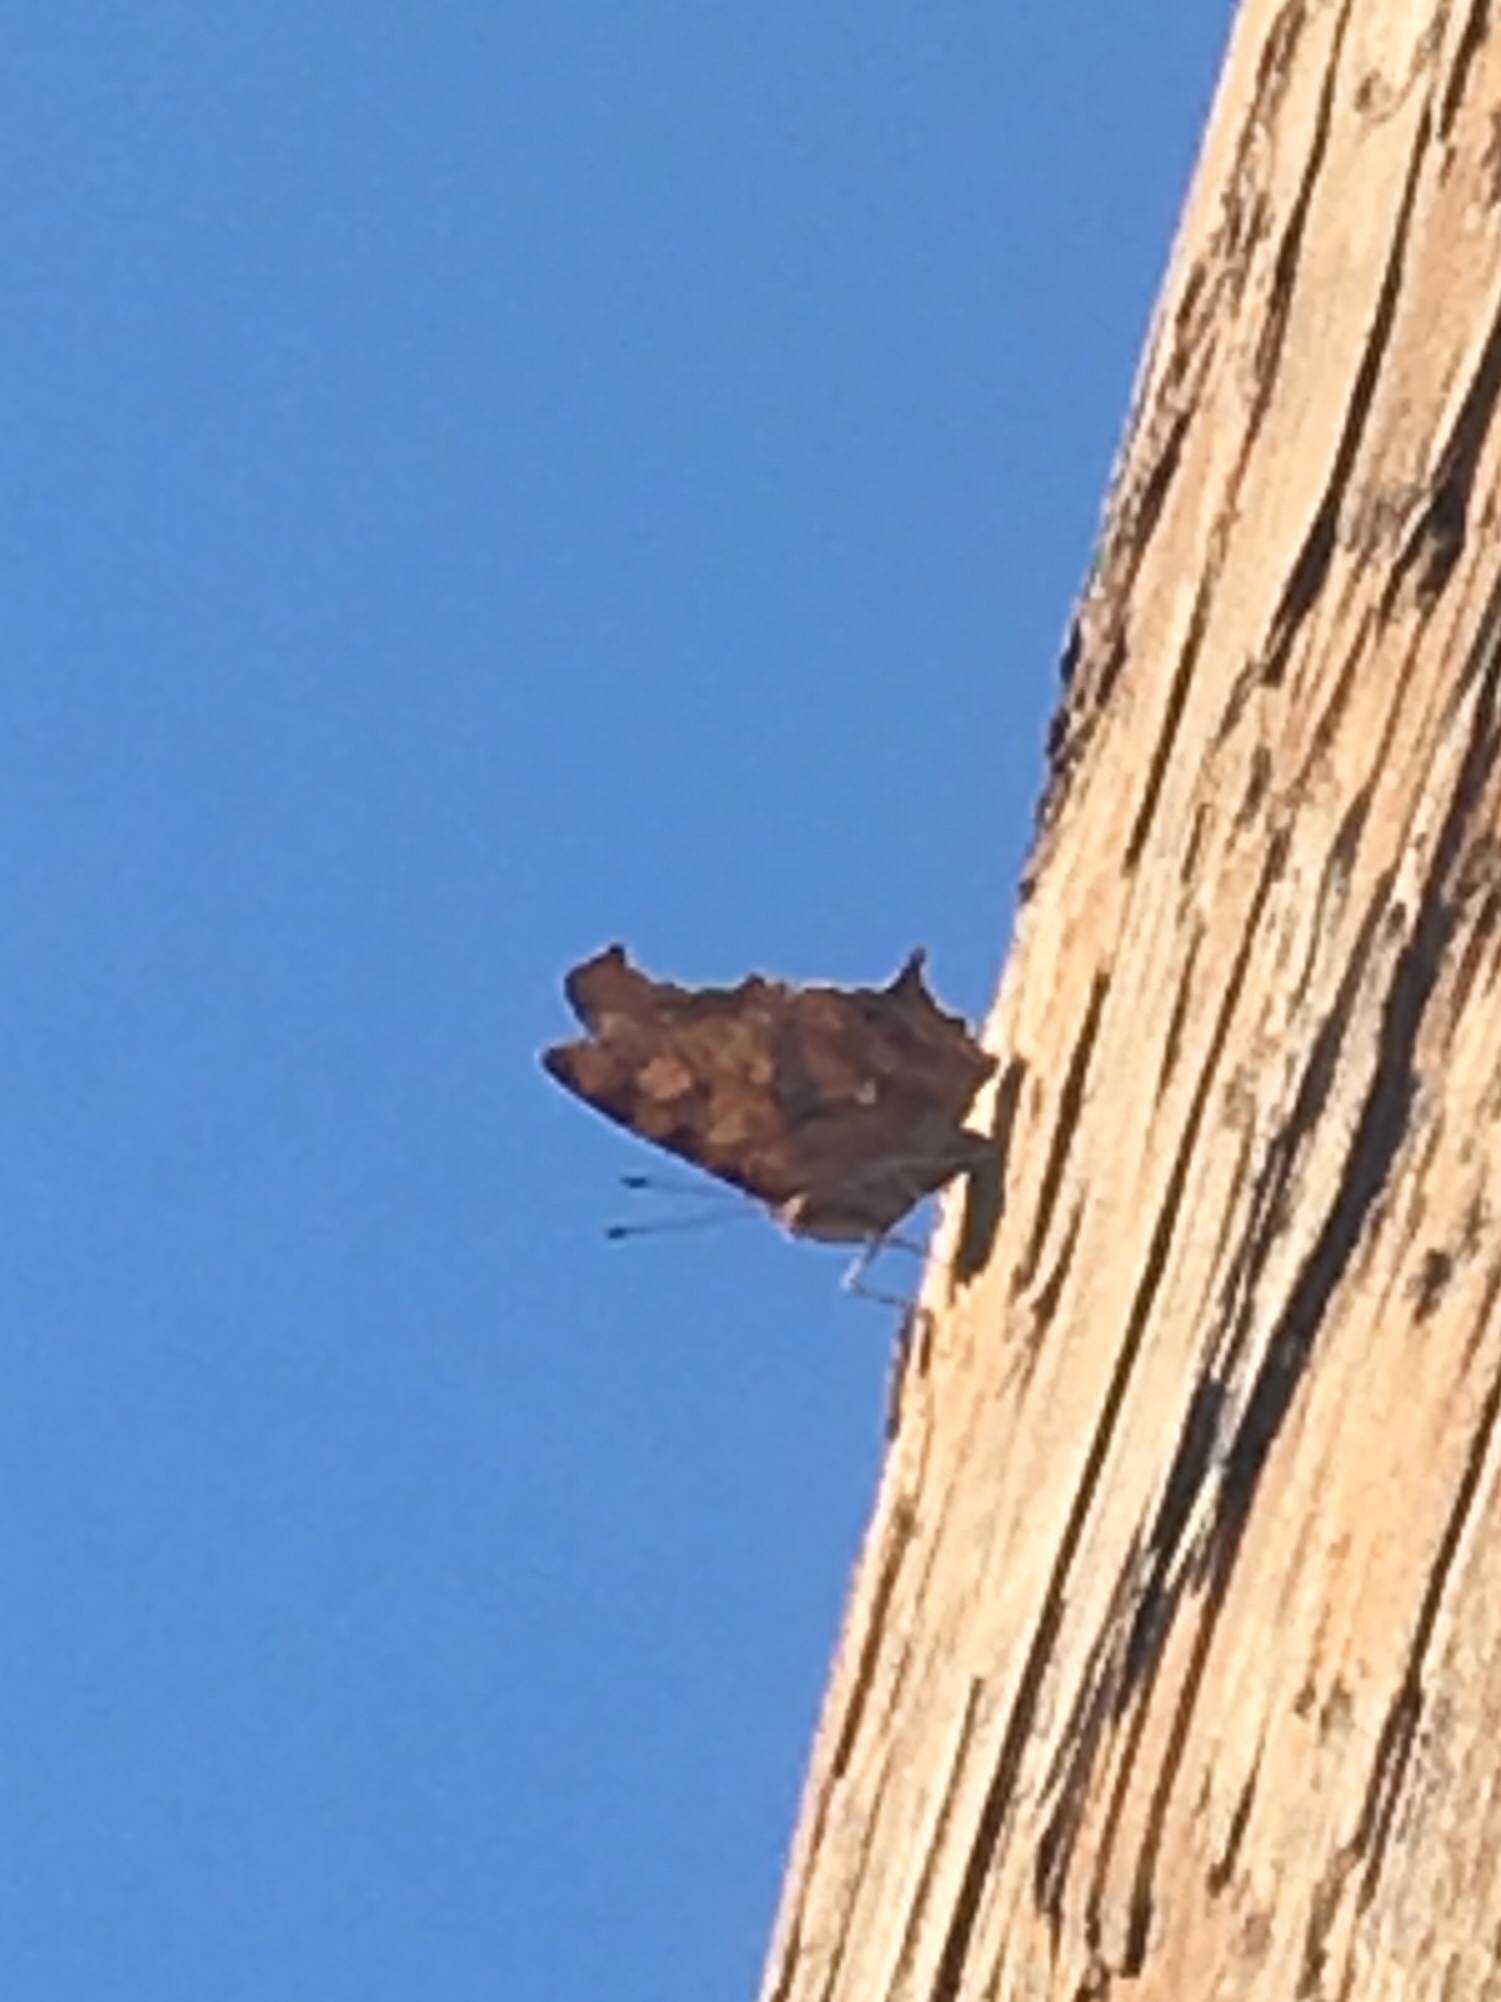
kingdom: Animalia
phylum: Arthropoda
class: Insecta
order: Lepidoptera
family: Nymphalidae
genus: Polygonia
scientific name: Polygonia interrogationis
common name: Question mark
